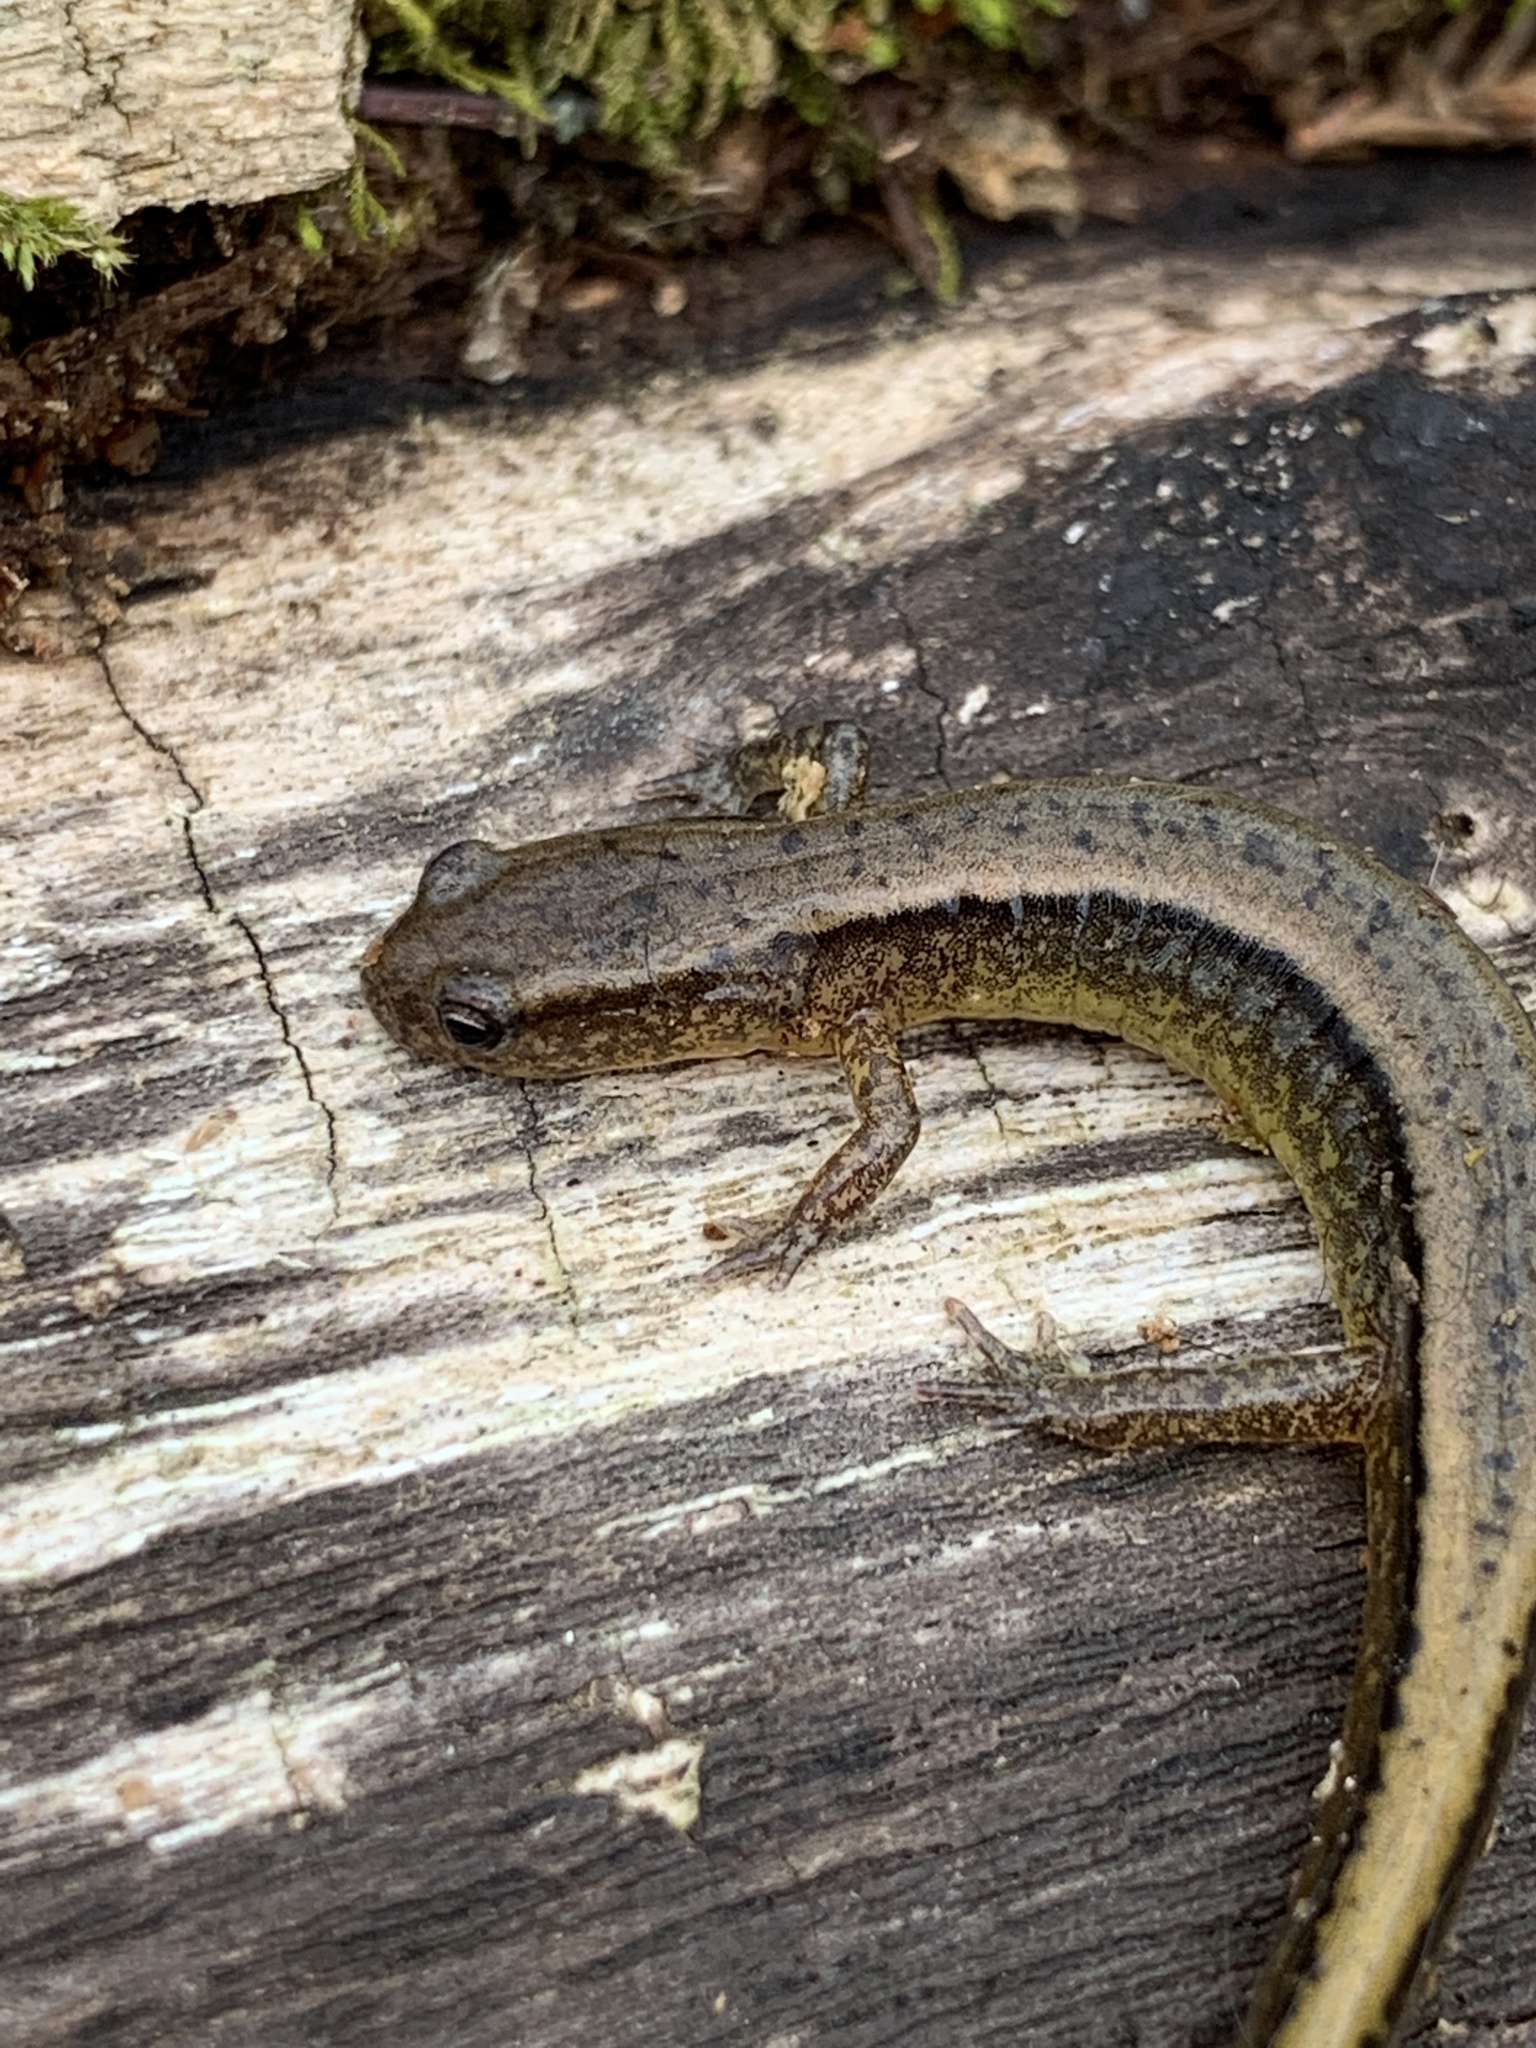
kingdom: Animalia
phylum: Chordata
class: Amphibia
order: Caudata
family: Plethodontidae
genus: Eurycea
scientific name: Eurycea cirrigera
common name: Southern two-lined salamander
